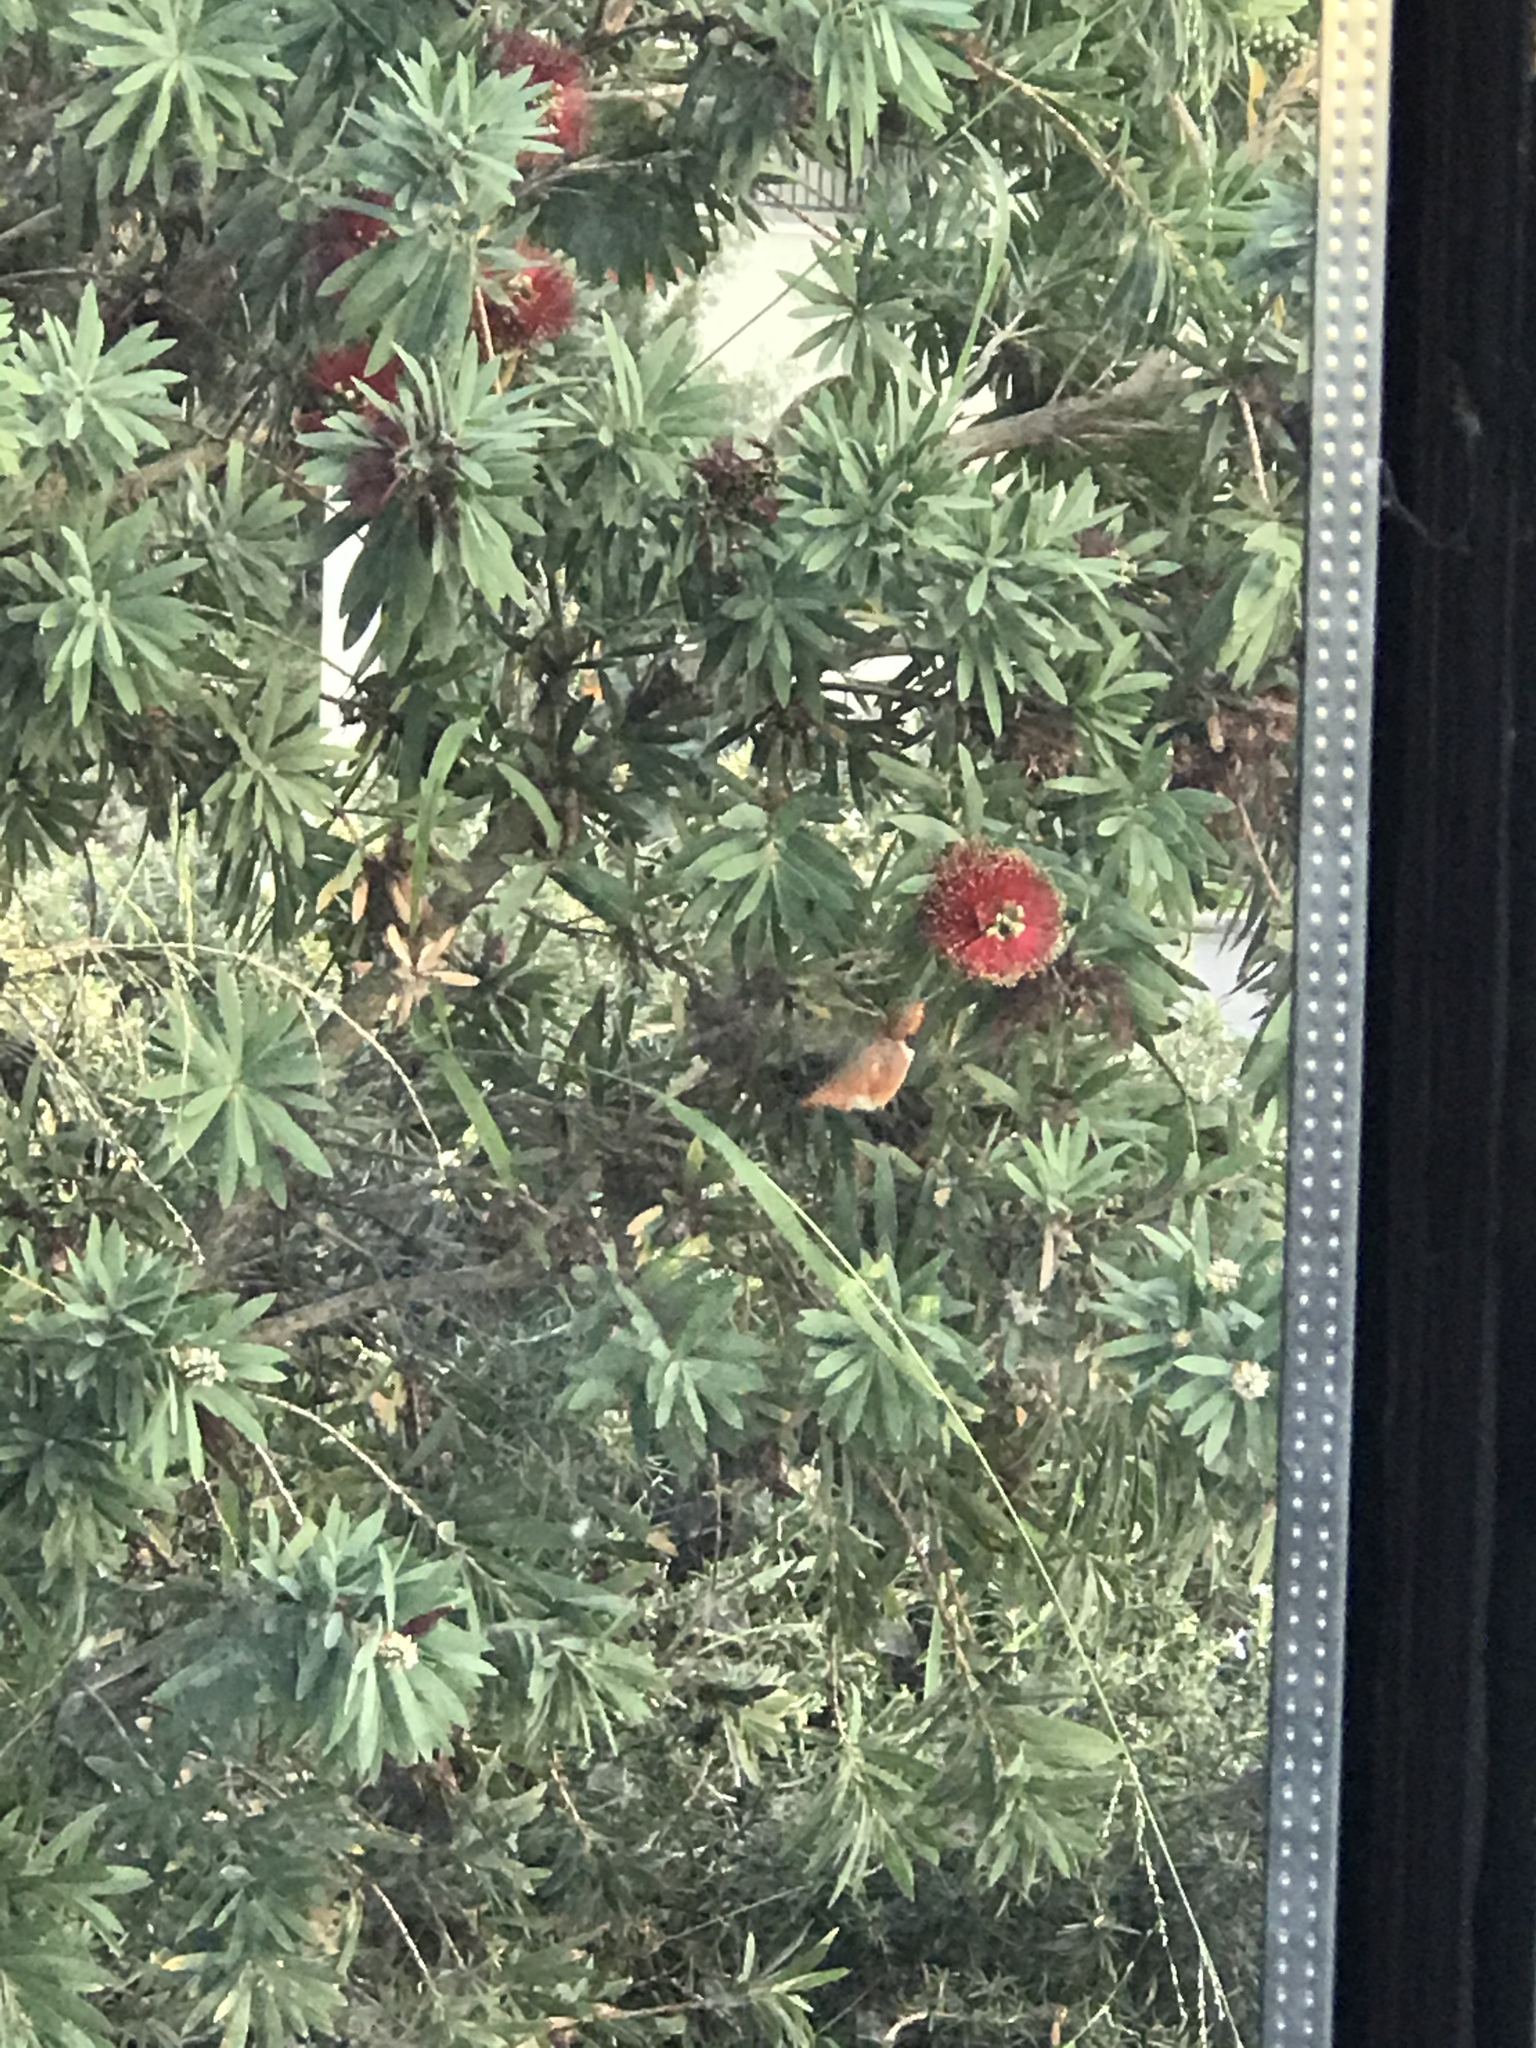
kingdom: Animalia
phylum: Chordata
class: Aves
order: Apodiformes
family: Trochilidae
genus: Selasphorus
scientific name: Selasphorus sasin
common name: Allen's hummingbird
